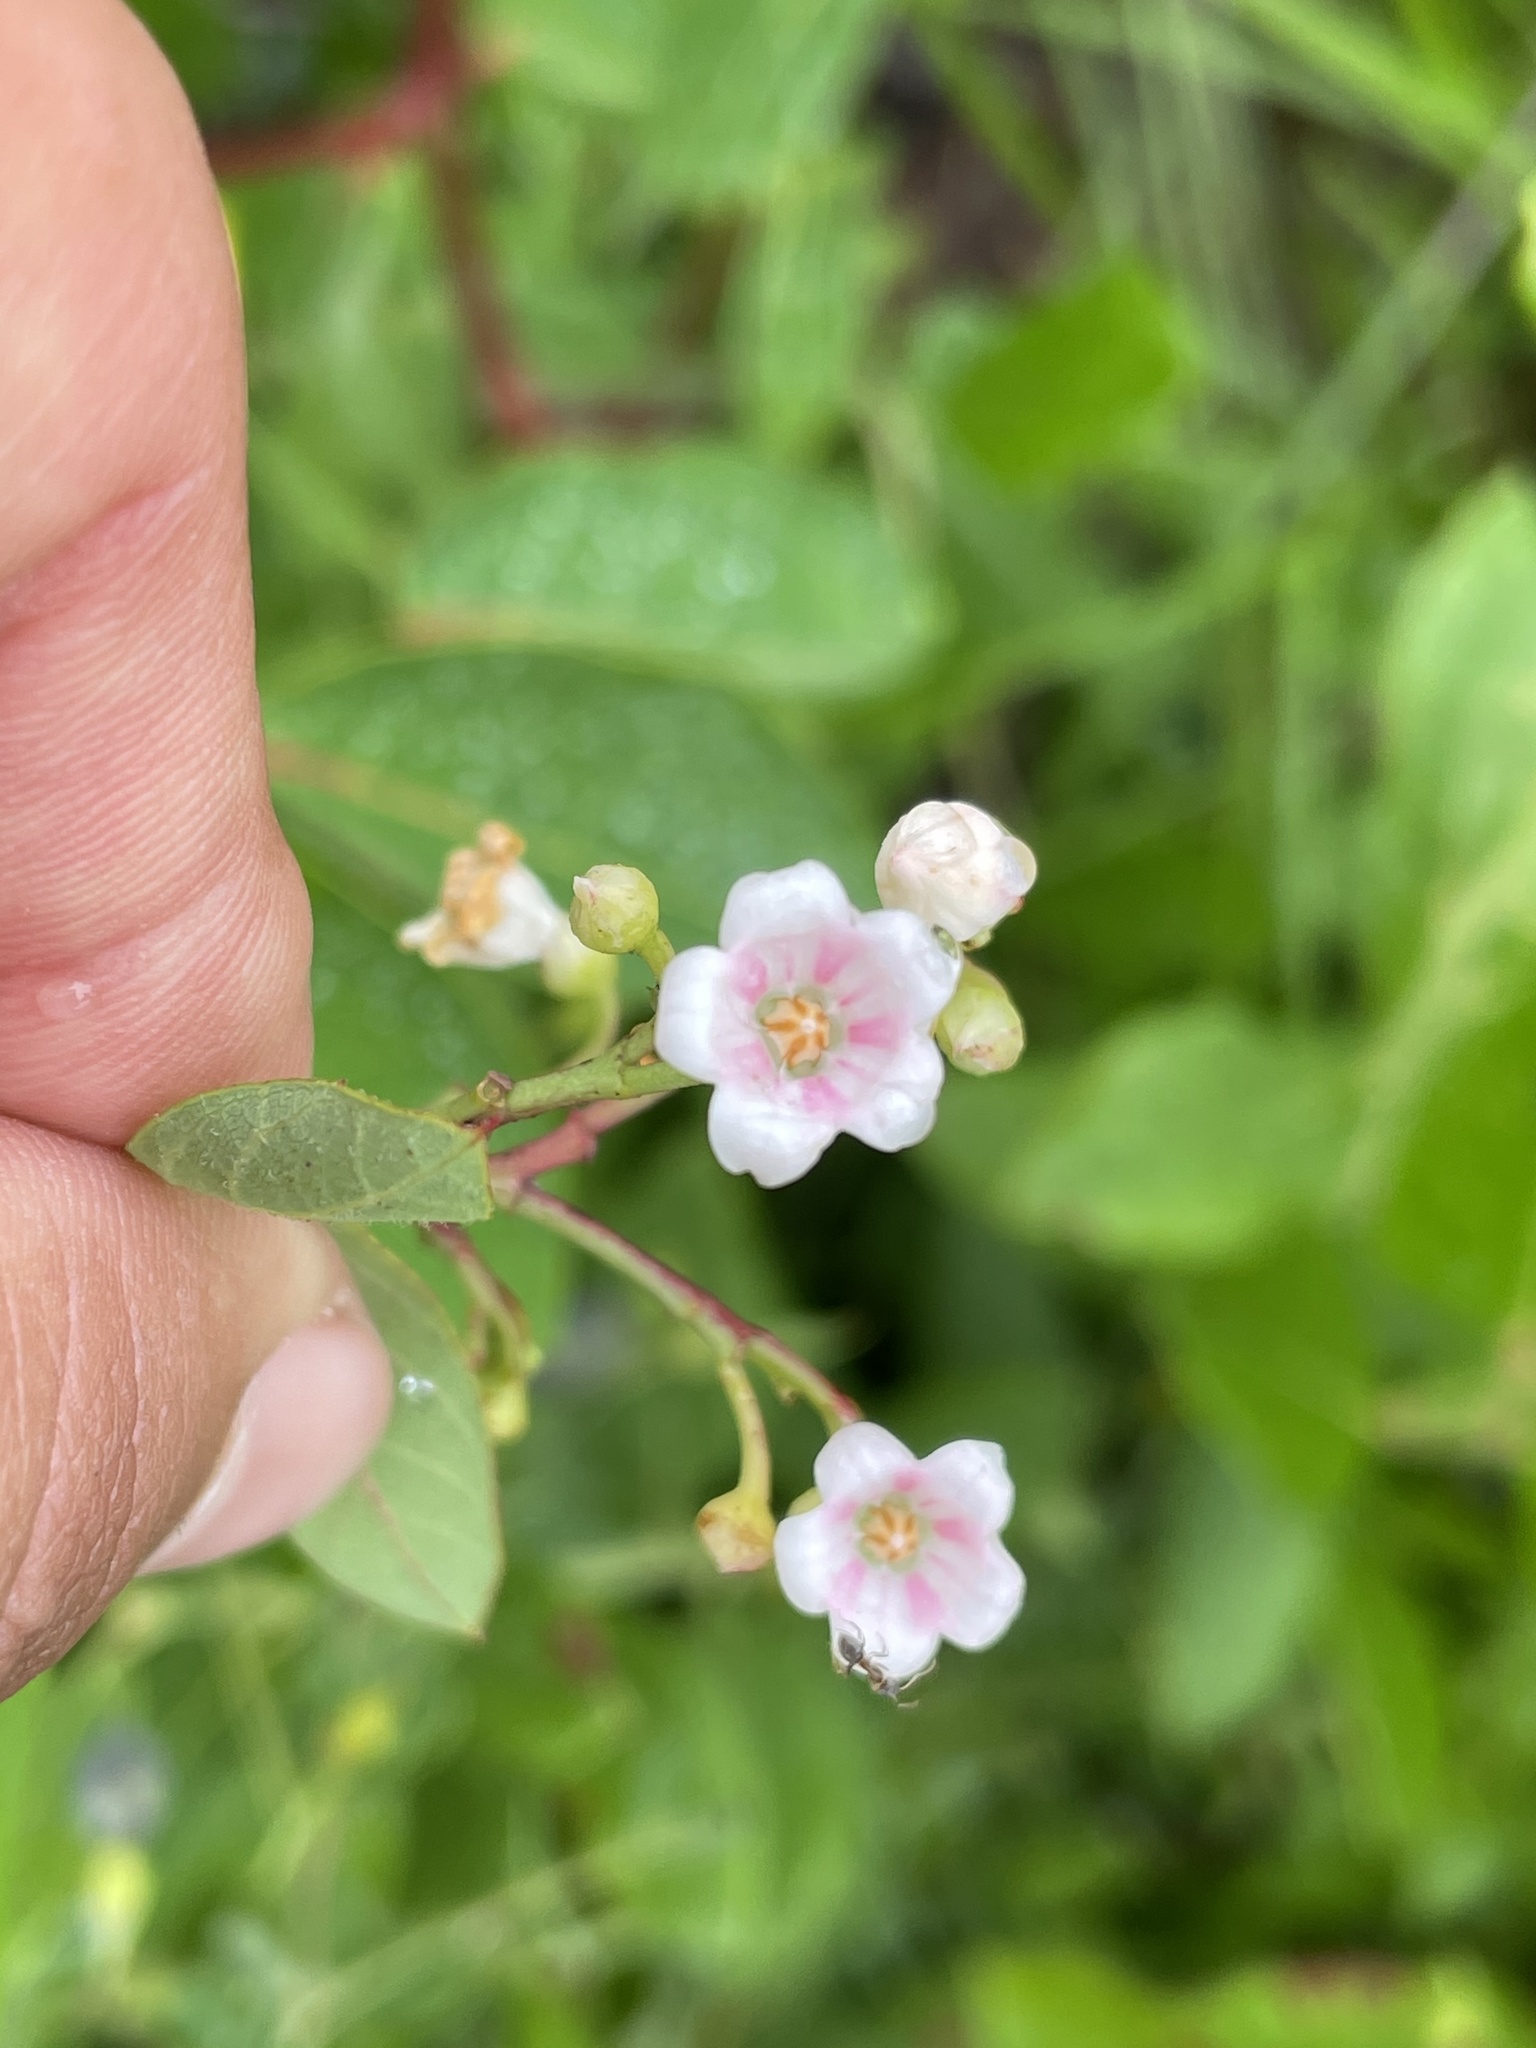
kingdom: Plantae
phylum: Tracheophyta
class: Magnoliopsida
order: Gentianales
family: Apocynaceae
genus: Apocynum
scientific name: Apocynum androsaemifolium
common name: Spreading dogbane
